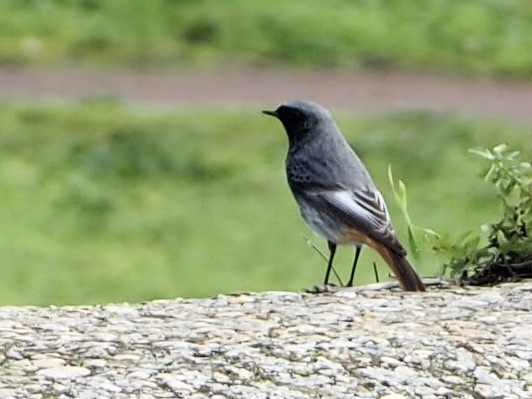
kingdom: Animalia
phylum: Chordata
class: Aves
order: Passeriformes
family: Muscicapidae
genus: Phoenicurus
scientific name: Phoenicurus ochruros
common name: Black redstart
